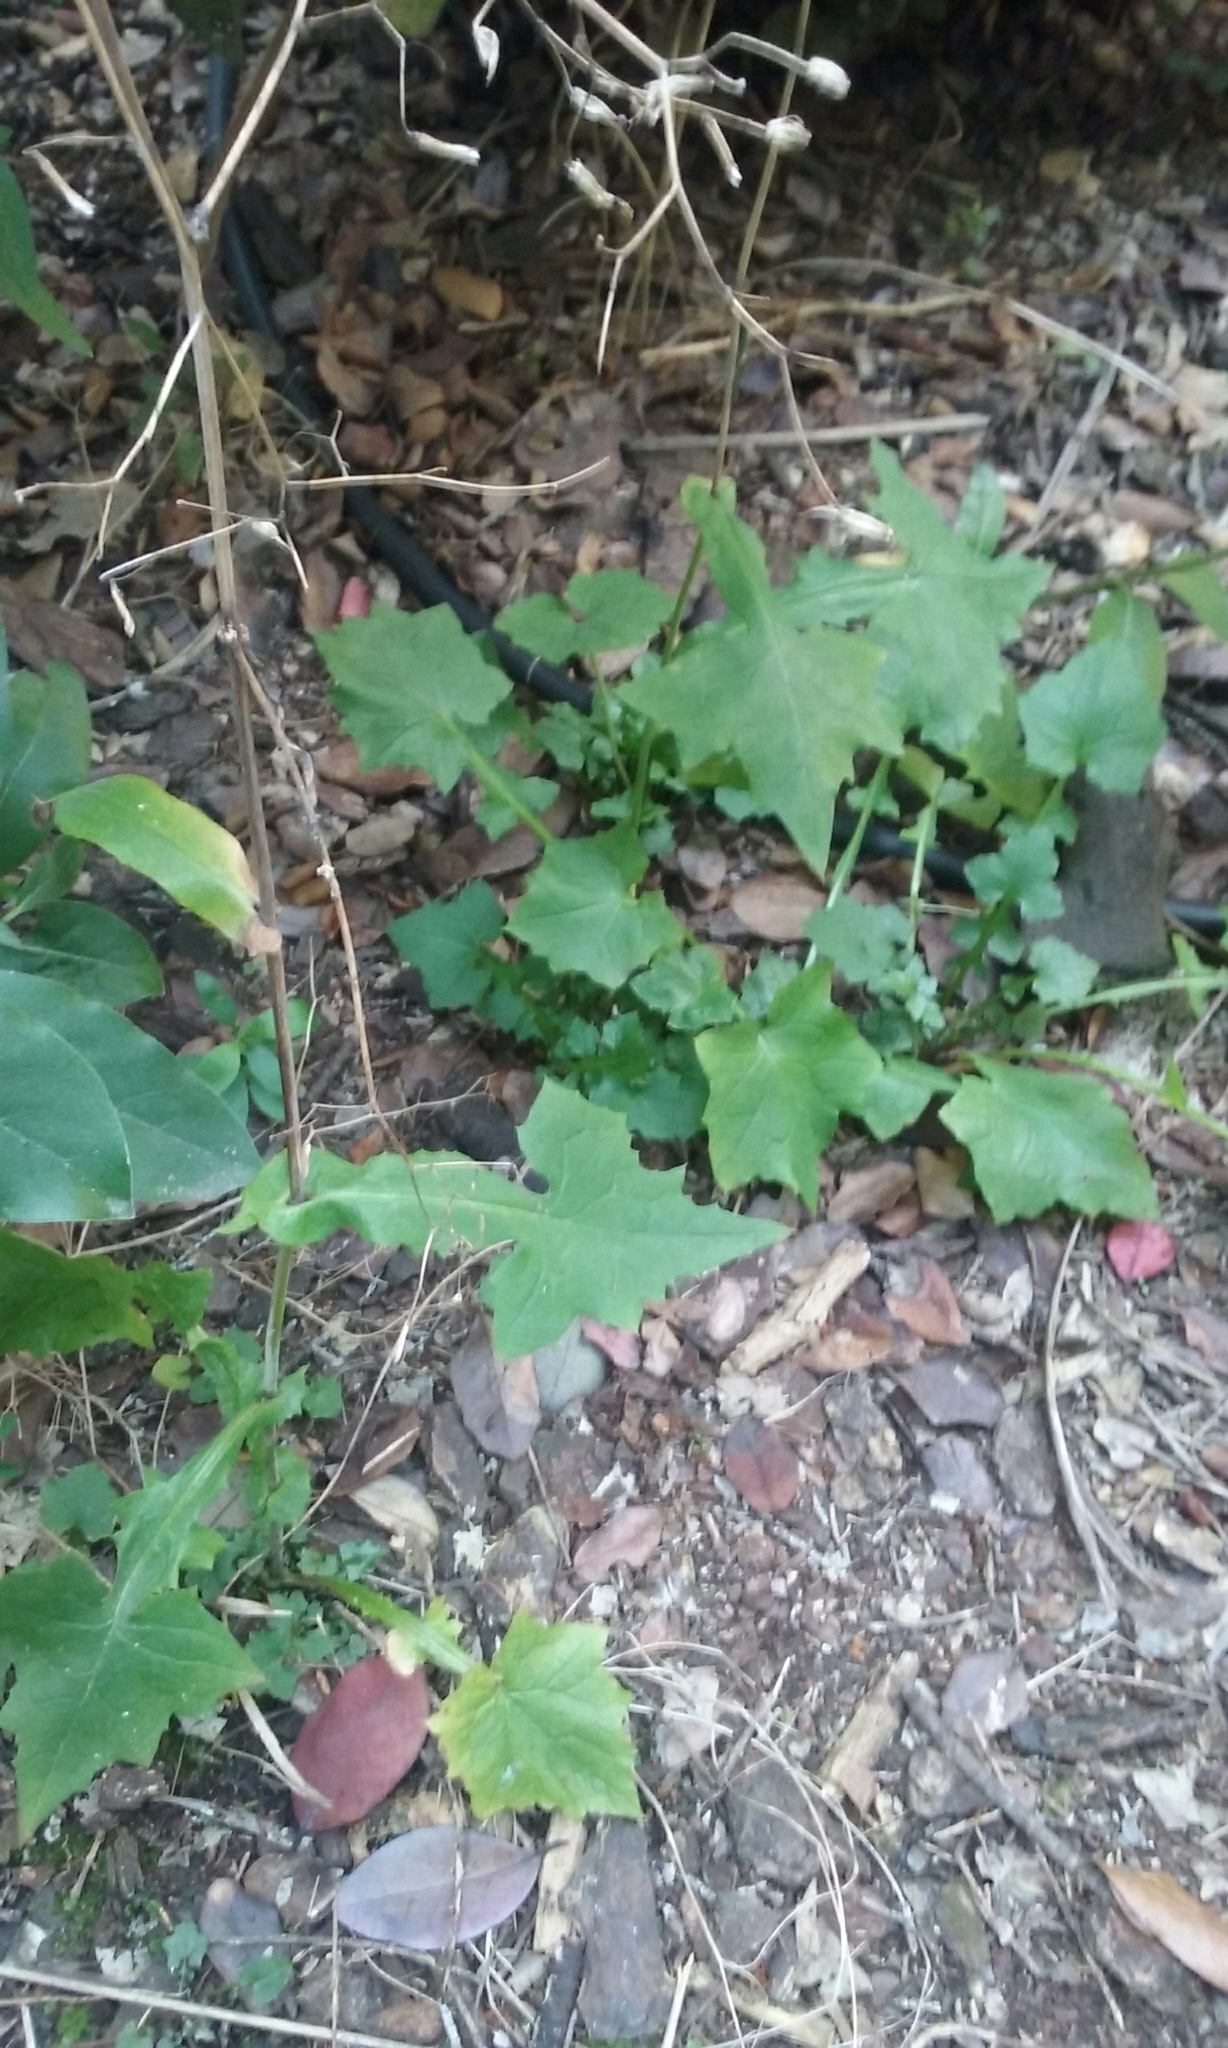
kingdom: Plantae
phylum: Tracheophyta
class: Magnoliopsida
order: Asterales
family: Asteraceae
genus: Mycelis
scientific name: Mycelis muralis
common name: Wall lettuce
